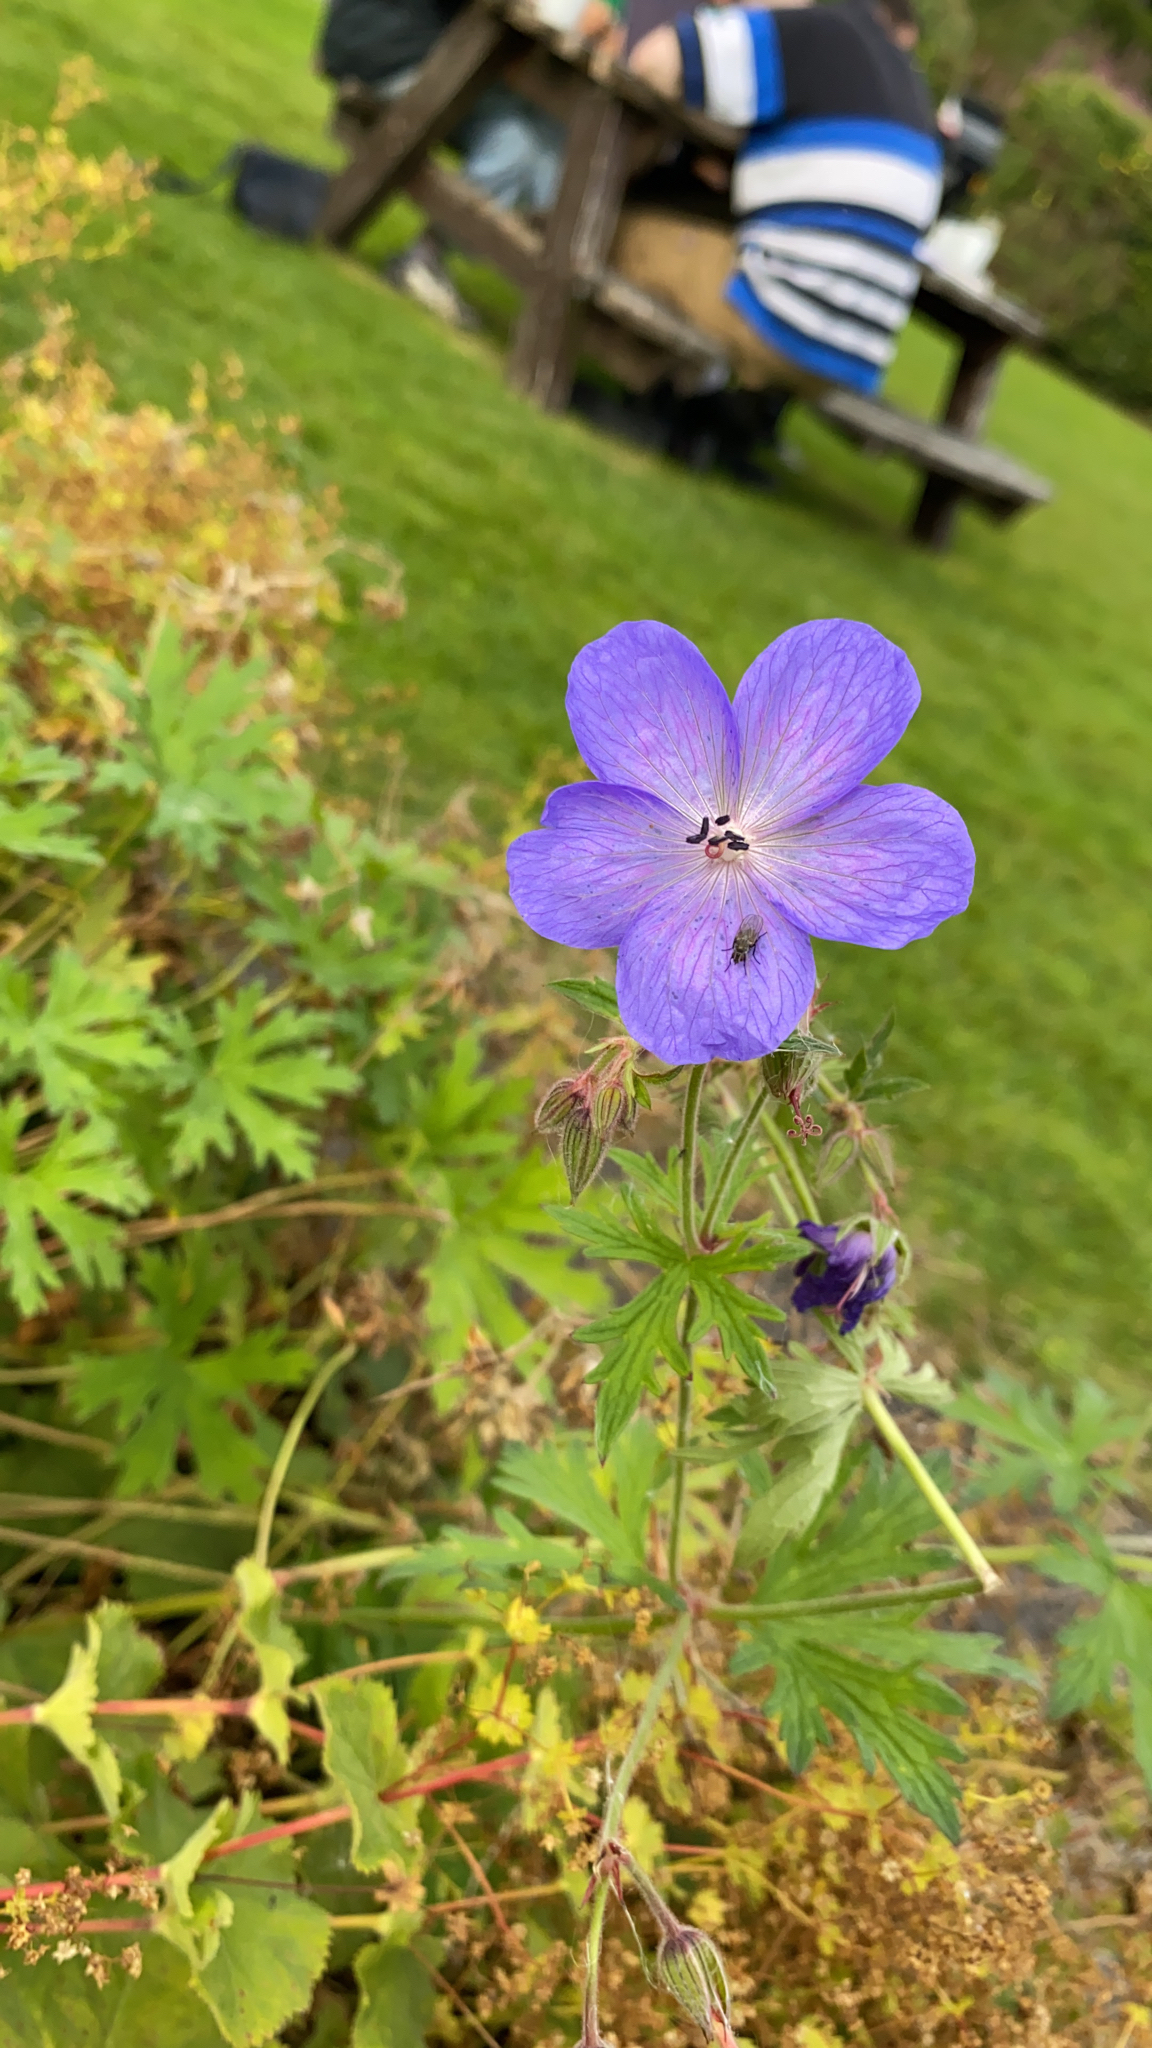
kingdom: Plantae
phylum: Tracheophyta
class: Magnoliopsida
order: Geraniales
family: Geraniaceae
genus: Geranium
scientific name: Geranium pratense
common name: Meadow crane's-bill
